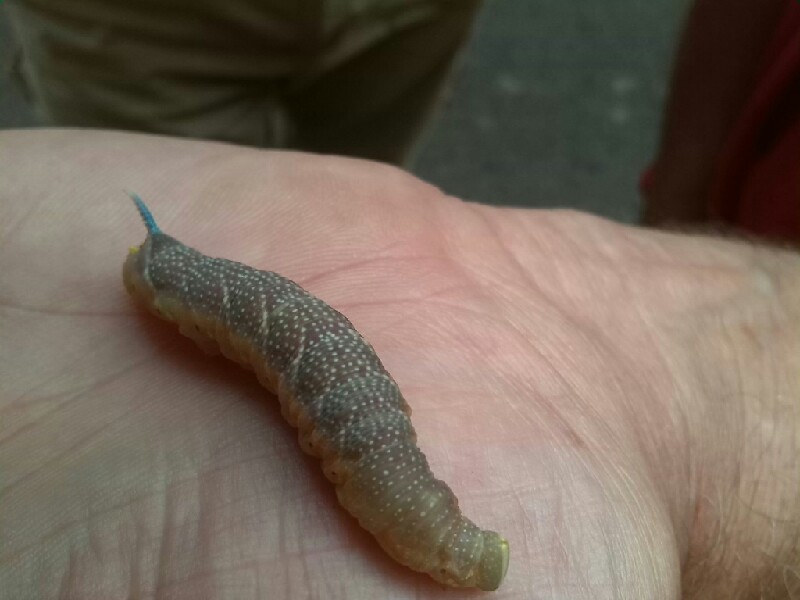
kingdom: Animalia
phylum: Arthropoda
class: Insecta
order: Lepidoptera
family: Sphingidae
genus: Mimas
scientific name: Mimas tiliae
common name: Lime hawk-moth
